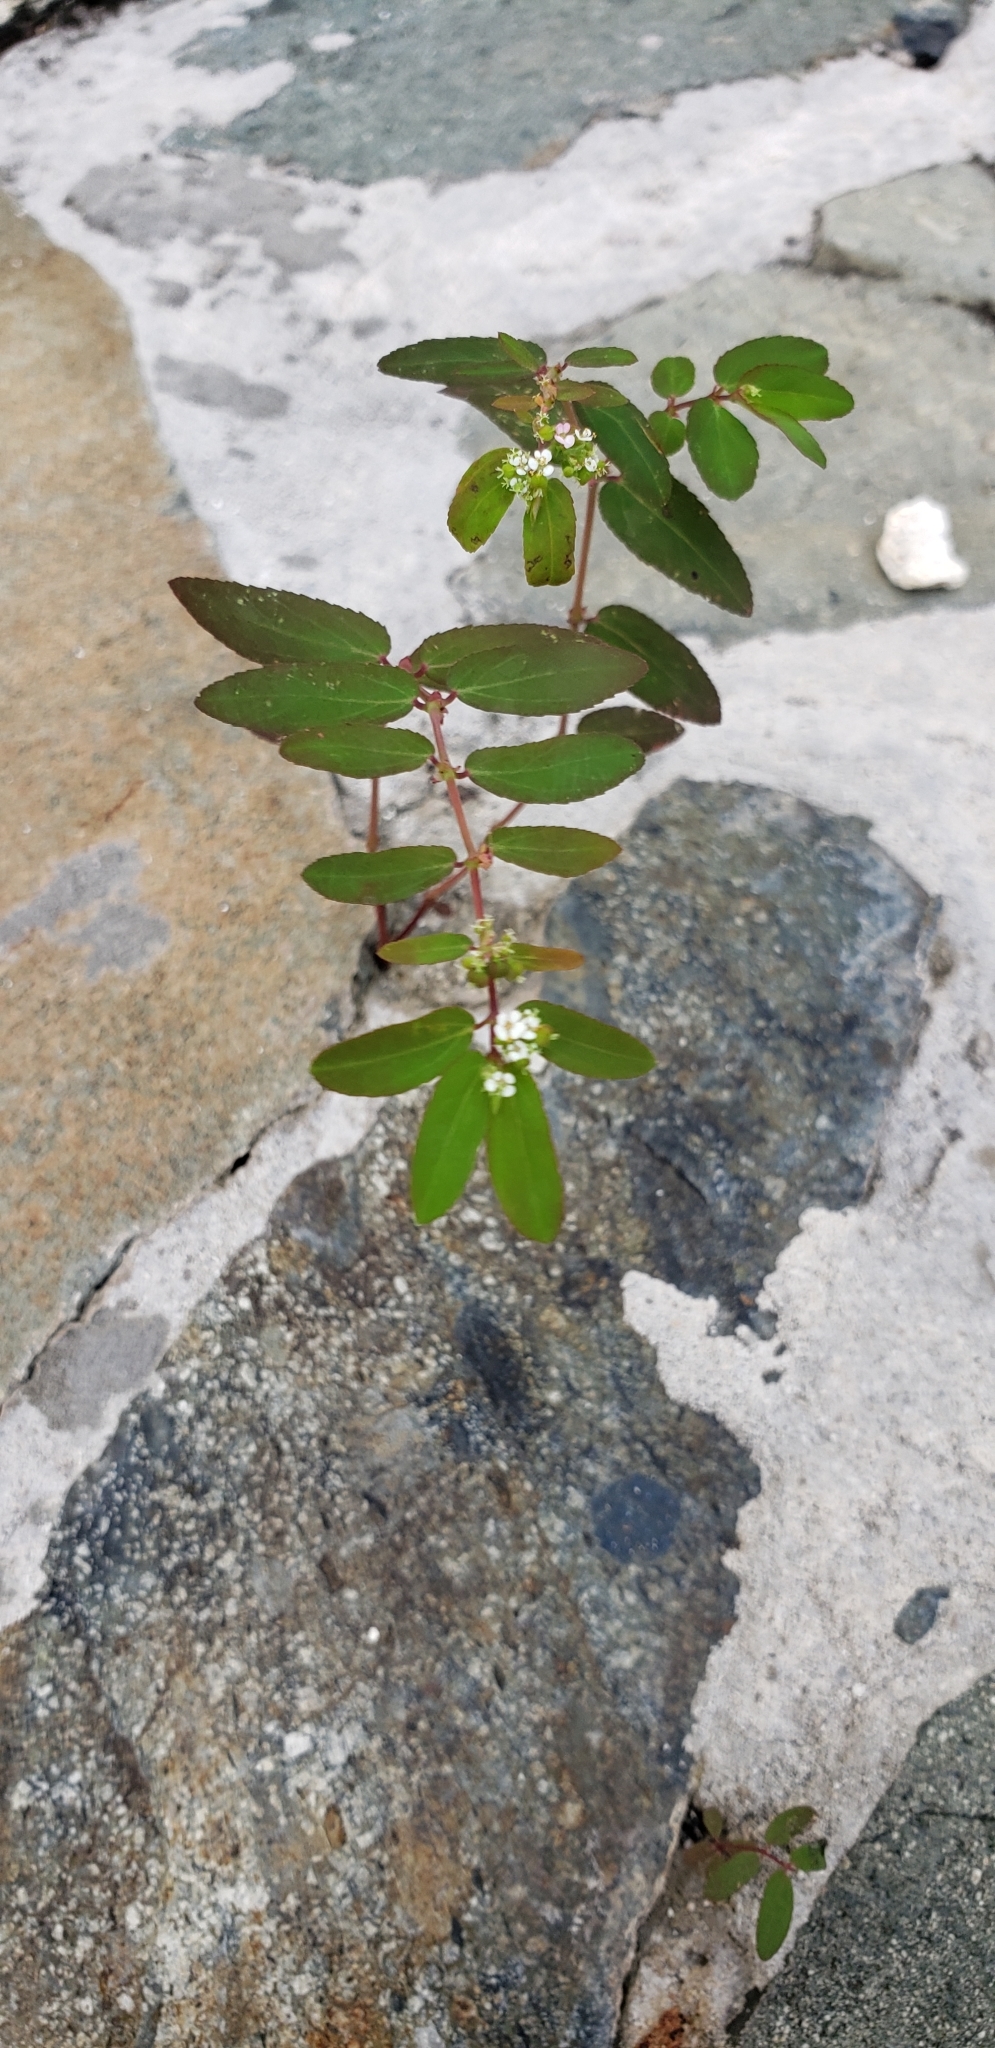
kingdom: Plantae
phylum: Tracheophyta
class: Magnoliopsida
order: Malpighiales
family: Euphorbiaceae
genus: Euphorbia
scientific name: Euphorbia hypericifolia
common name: Graceful sandmat
